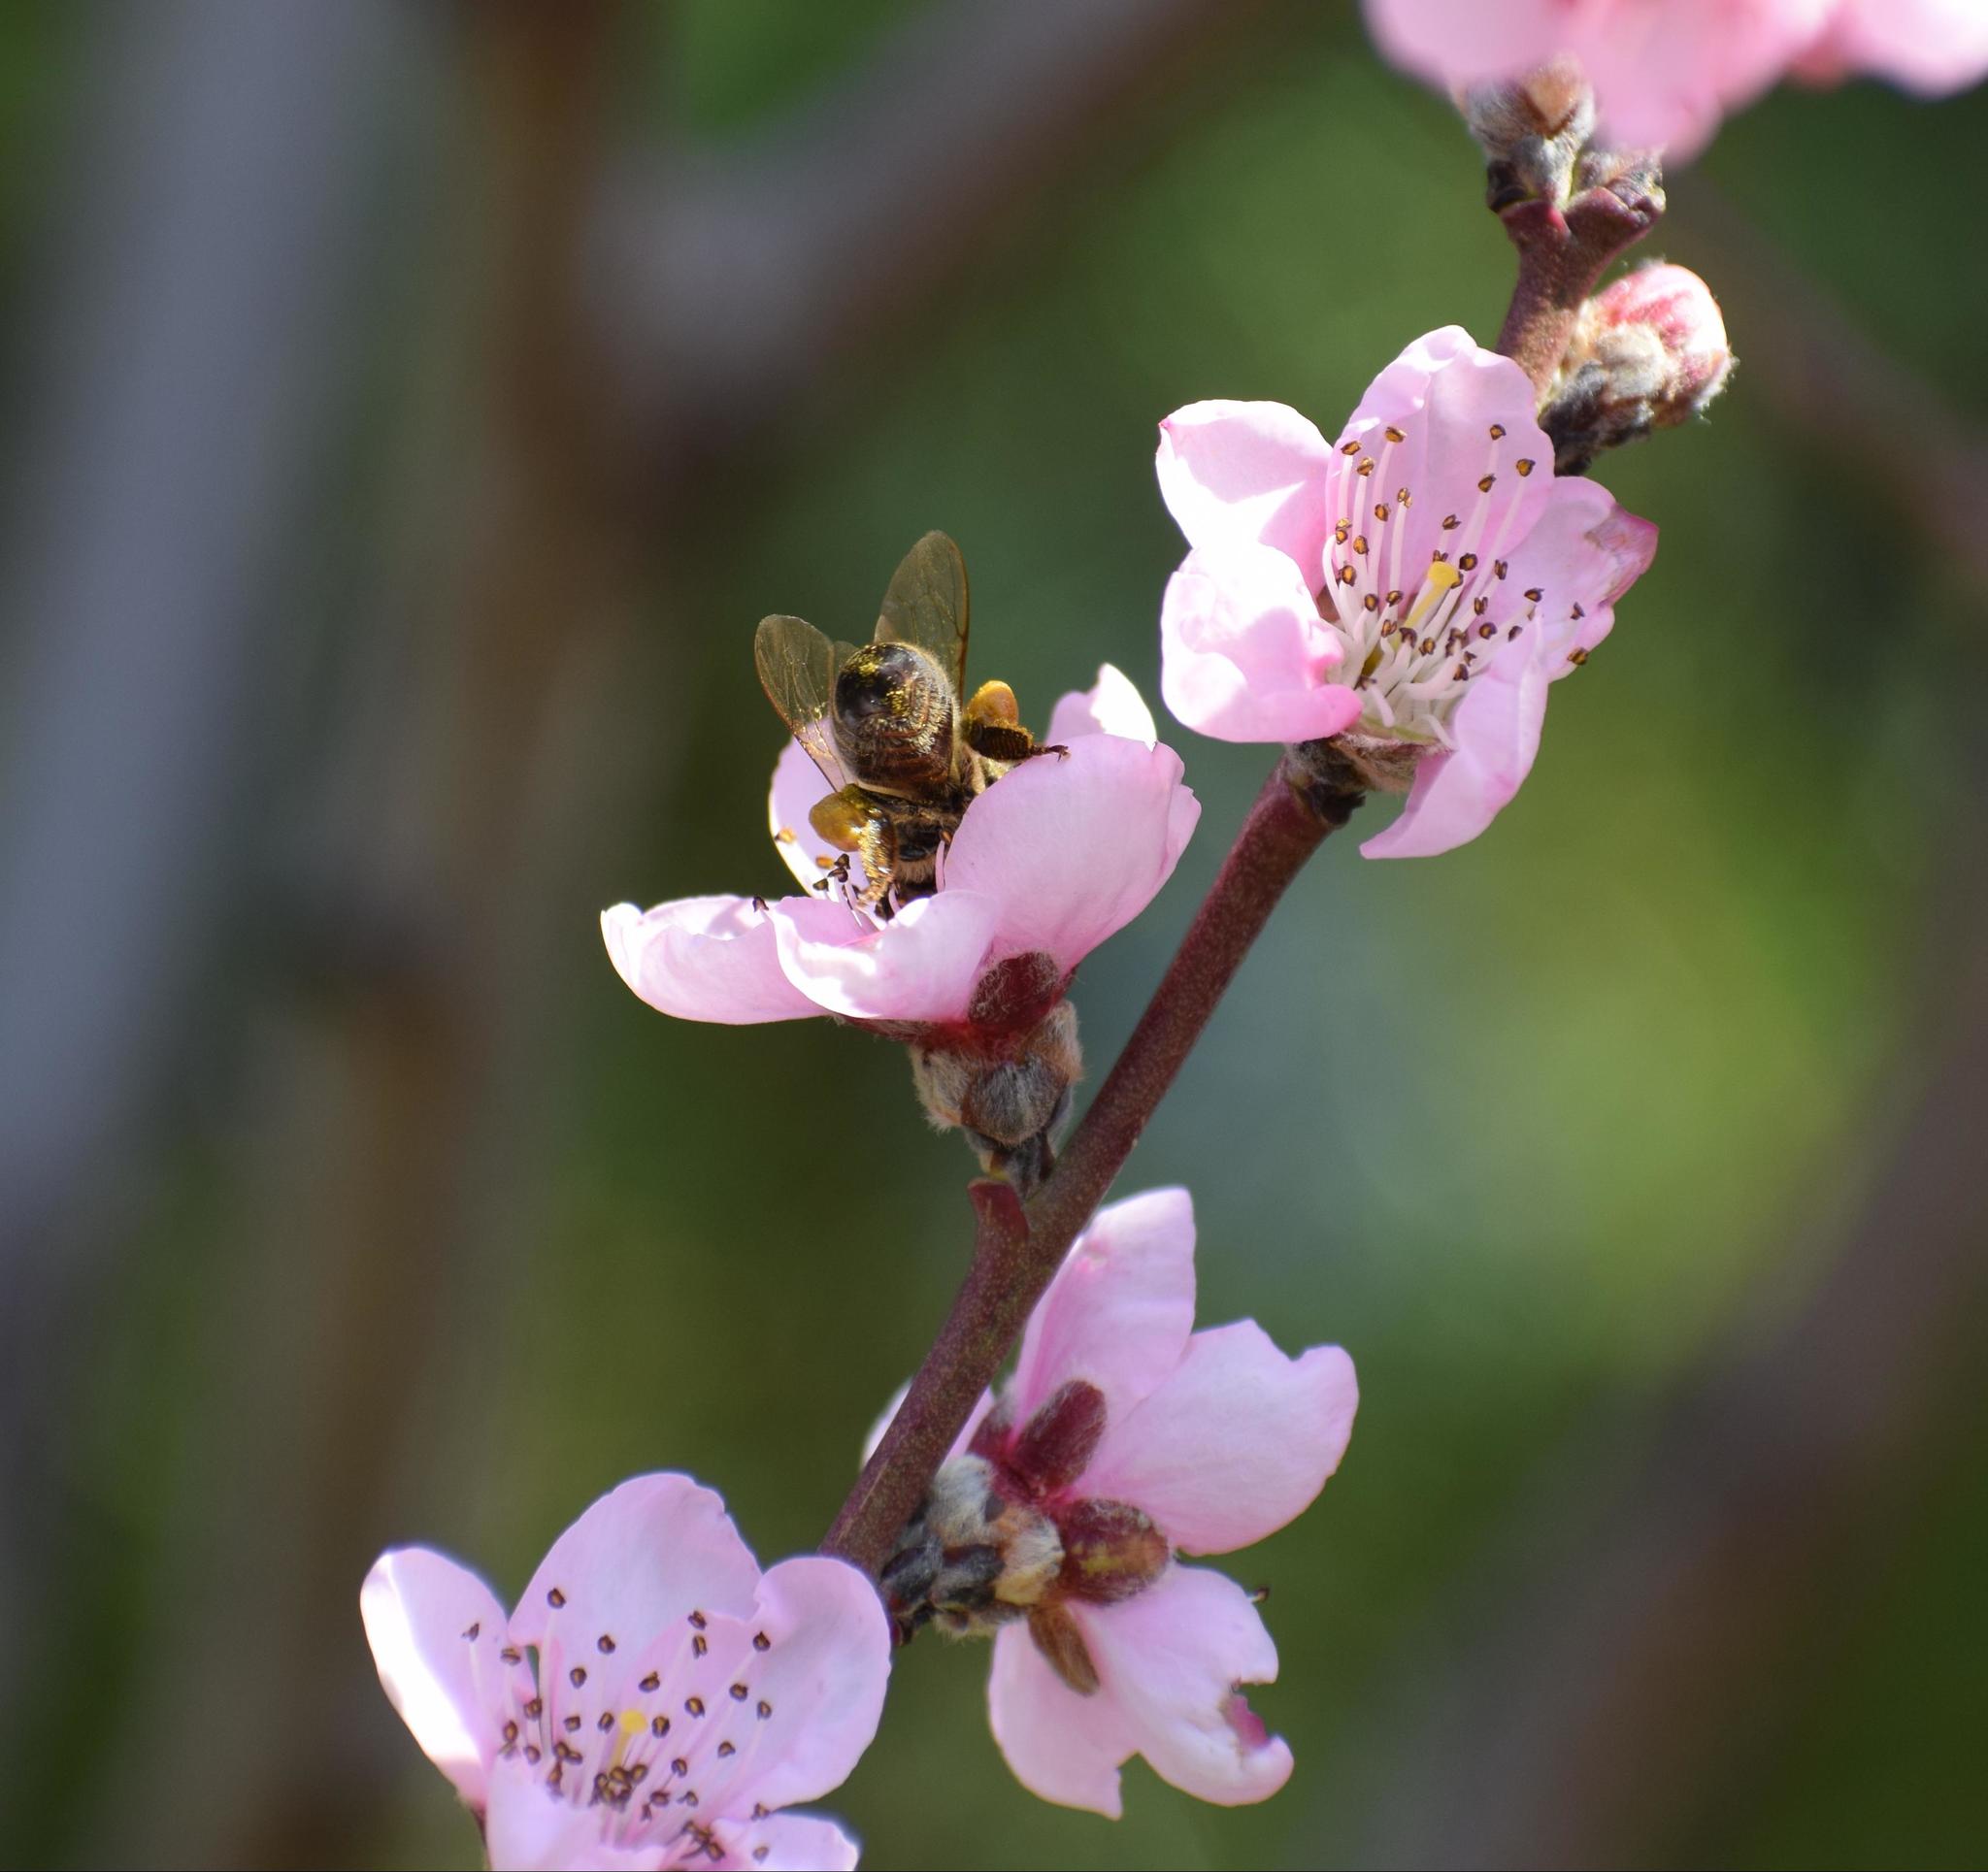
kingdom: Animalia
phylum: Arthropoda
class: Insecta
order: Hymenoptera
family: Apidae
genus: Apis
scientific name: Apis mellifera
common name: Honey bee
